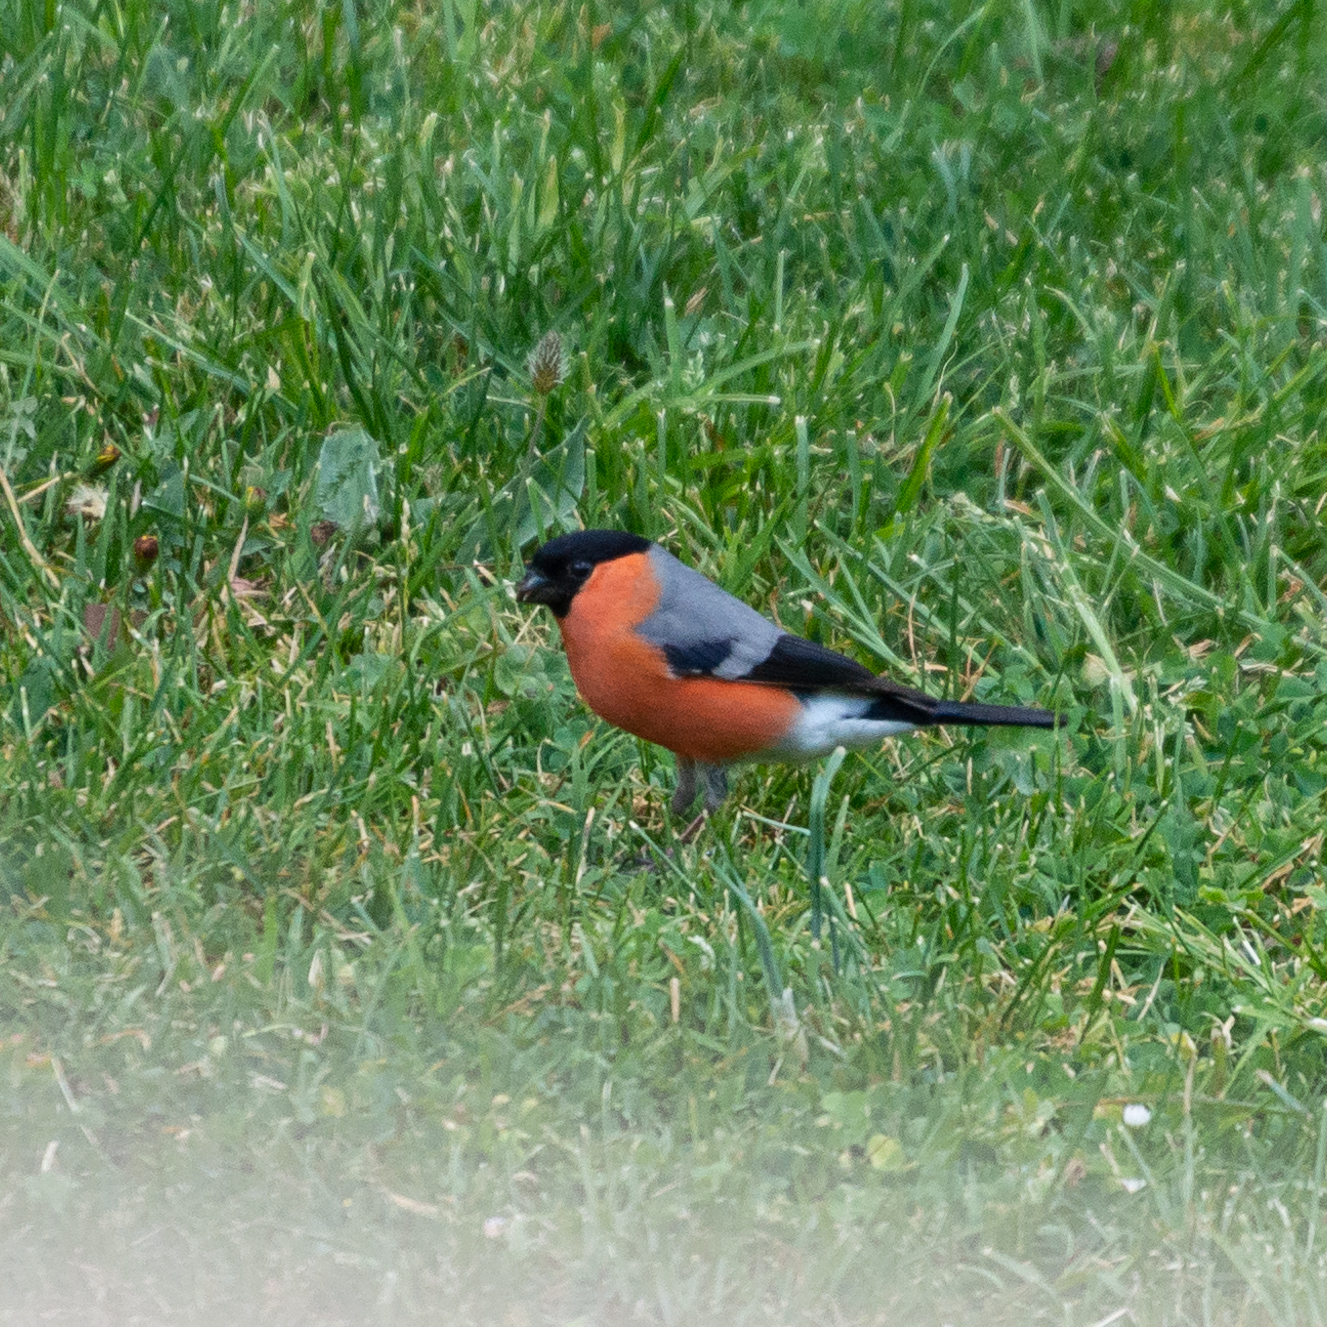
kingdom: Animalia
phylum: Chordata
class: Aves
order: Passeriformes
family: Fringillidae
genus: Pyrrhula
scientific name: Pyrrhula pyrrhula
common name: Eurasian bullfinch
